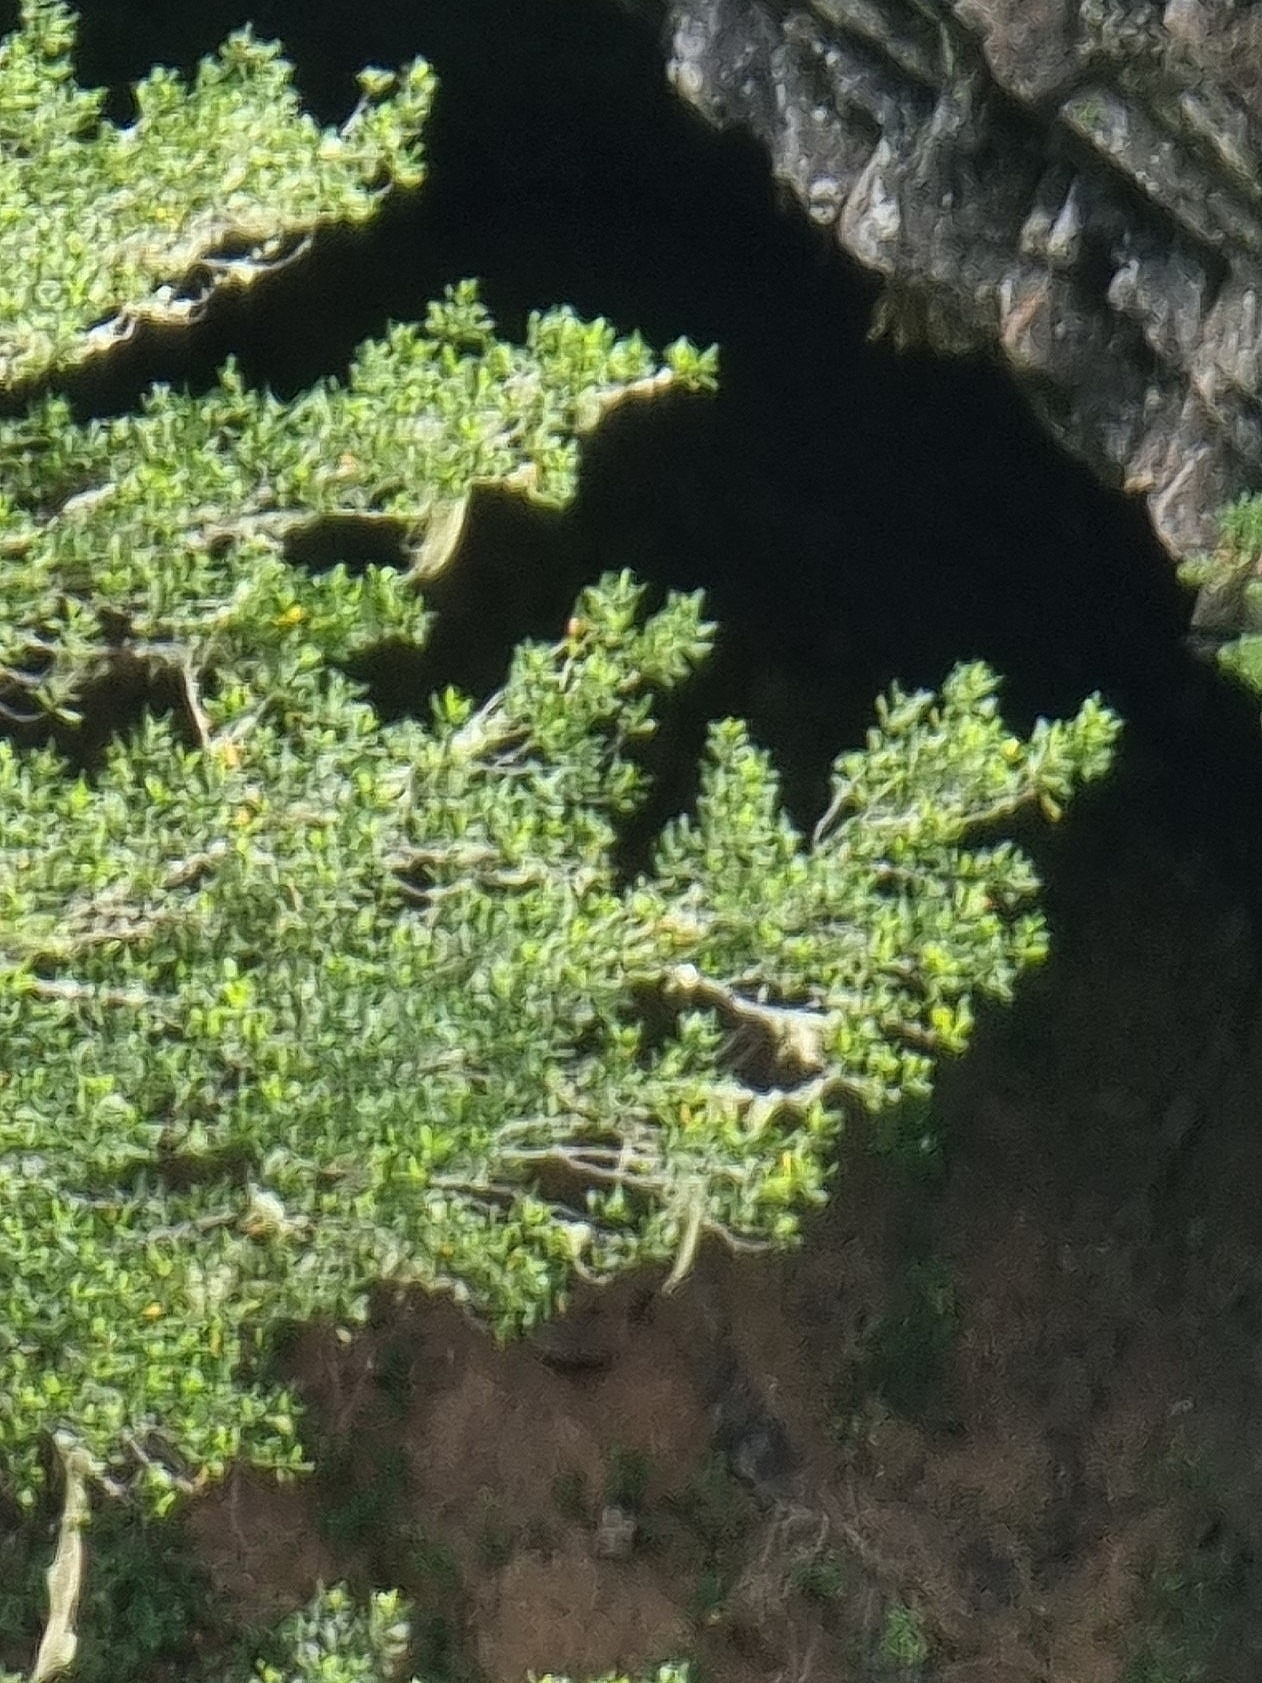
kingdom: Plantae
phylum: Tracheophyta
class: Magnoliopsida
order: Laurales
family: Lauraceae
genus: Mespilodaphne
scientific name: Mespilodaphne foetens
